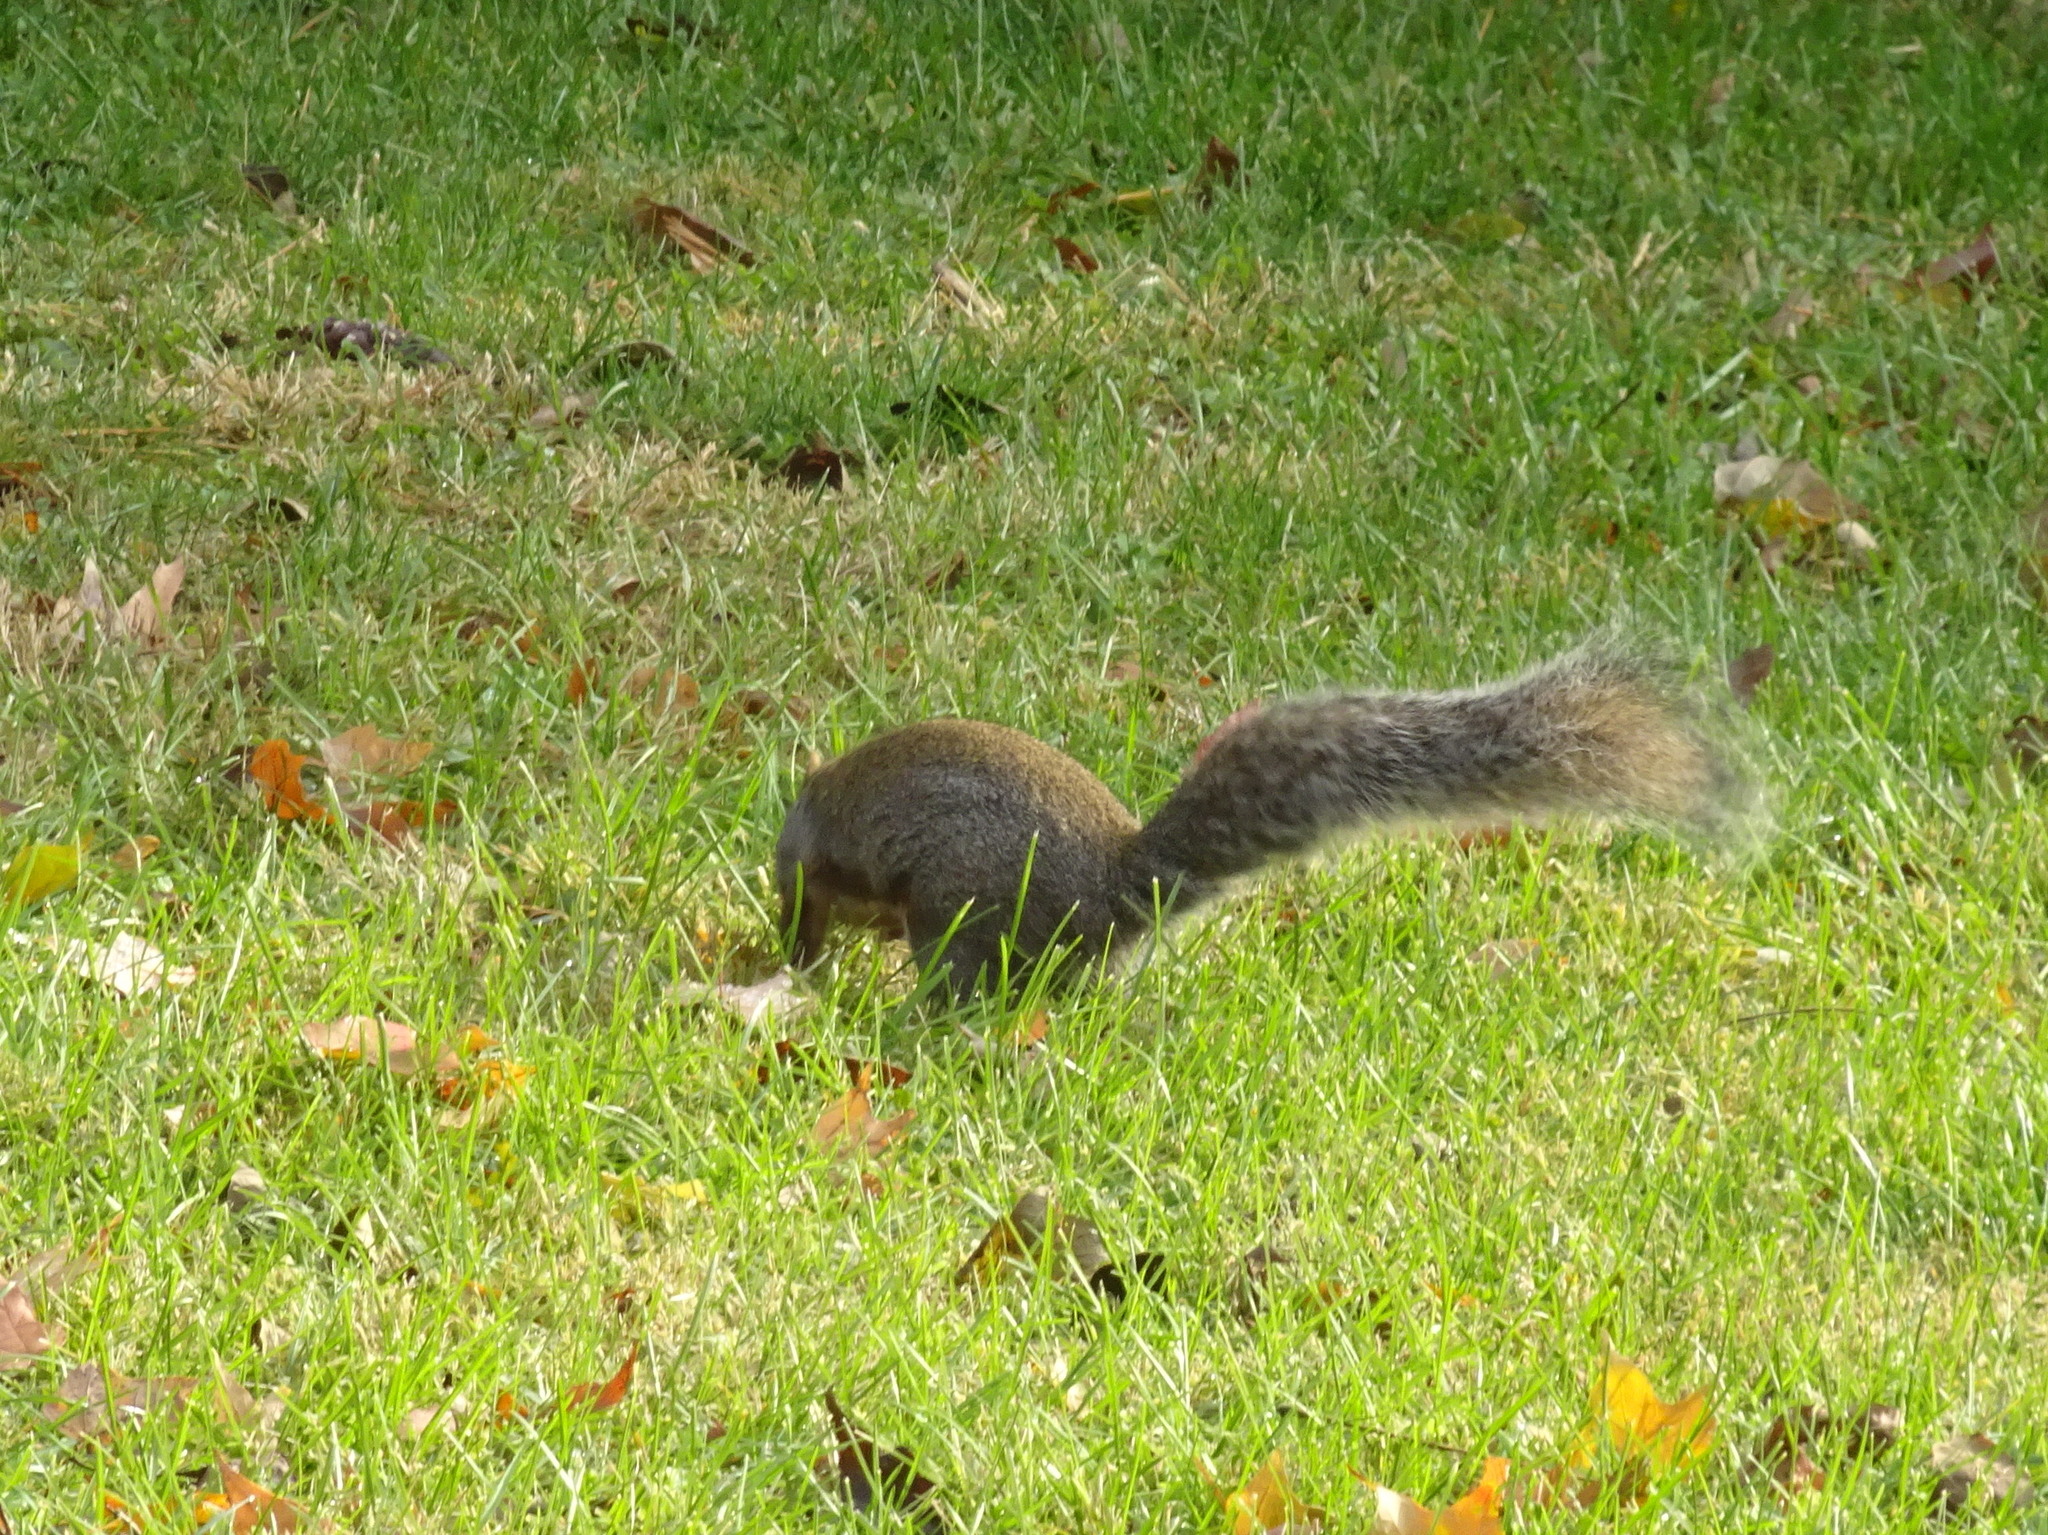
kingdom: Animalia
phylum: Chordata
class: Mammalia
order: Rodentia
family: Sciuridae
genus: Sciurus
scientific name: Sciurus carolinensis
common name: Eastern gray squirrel
